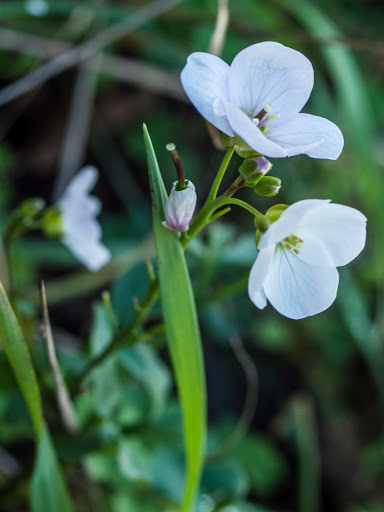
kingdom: Plantae
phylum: Tracheophyta
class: Magnoliopsida
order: Brassicales
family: Brassicaceae
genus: Cardamine
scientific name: Cardamine californica
